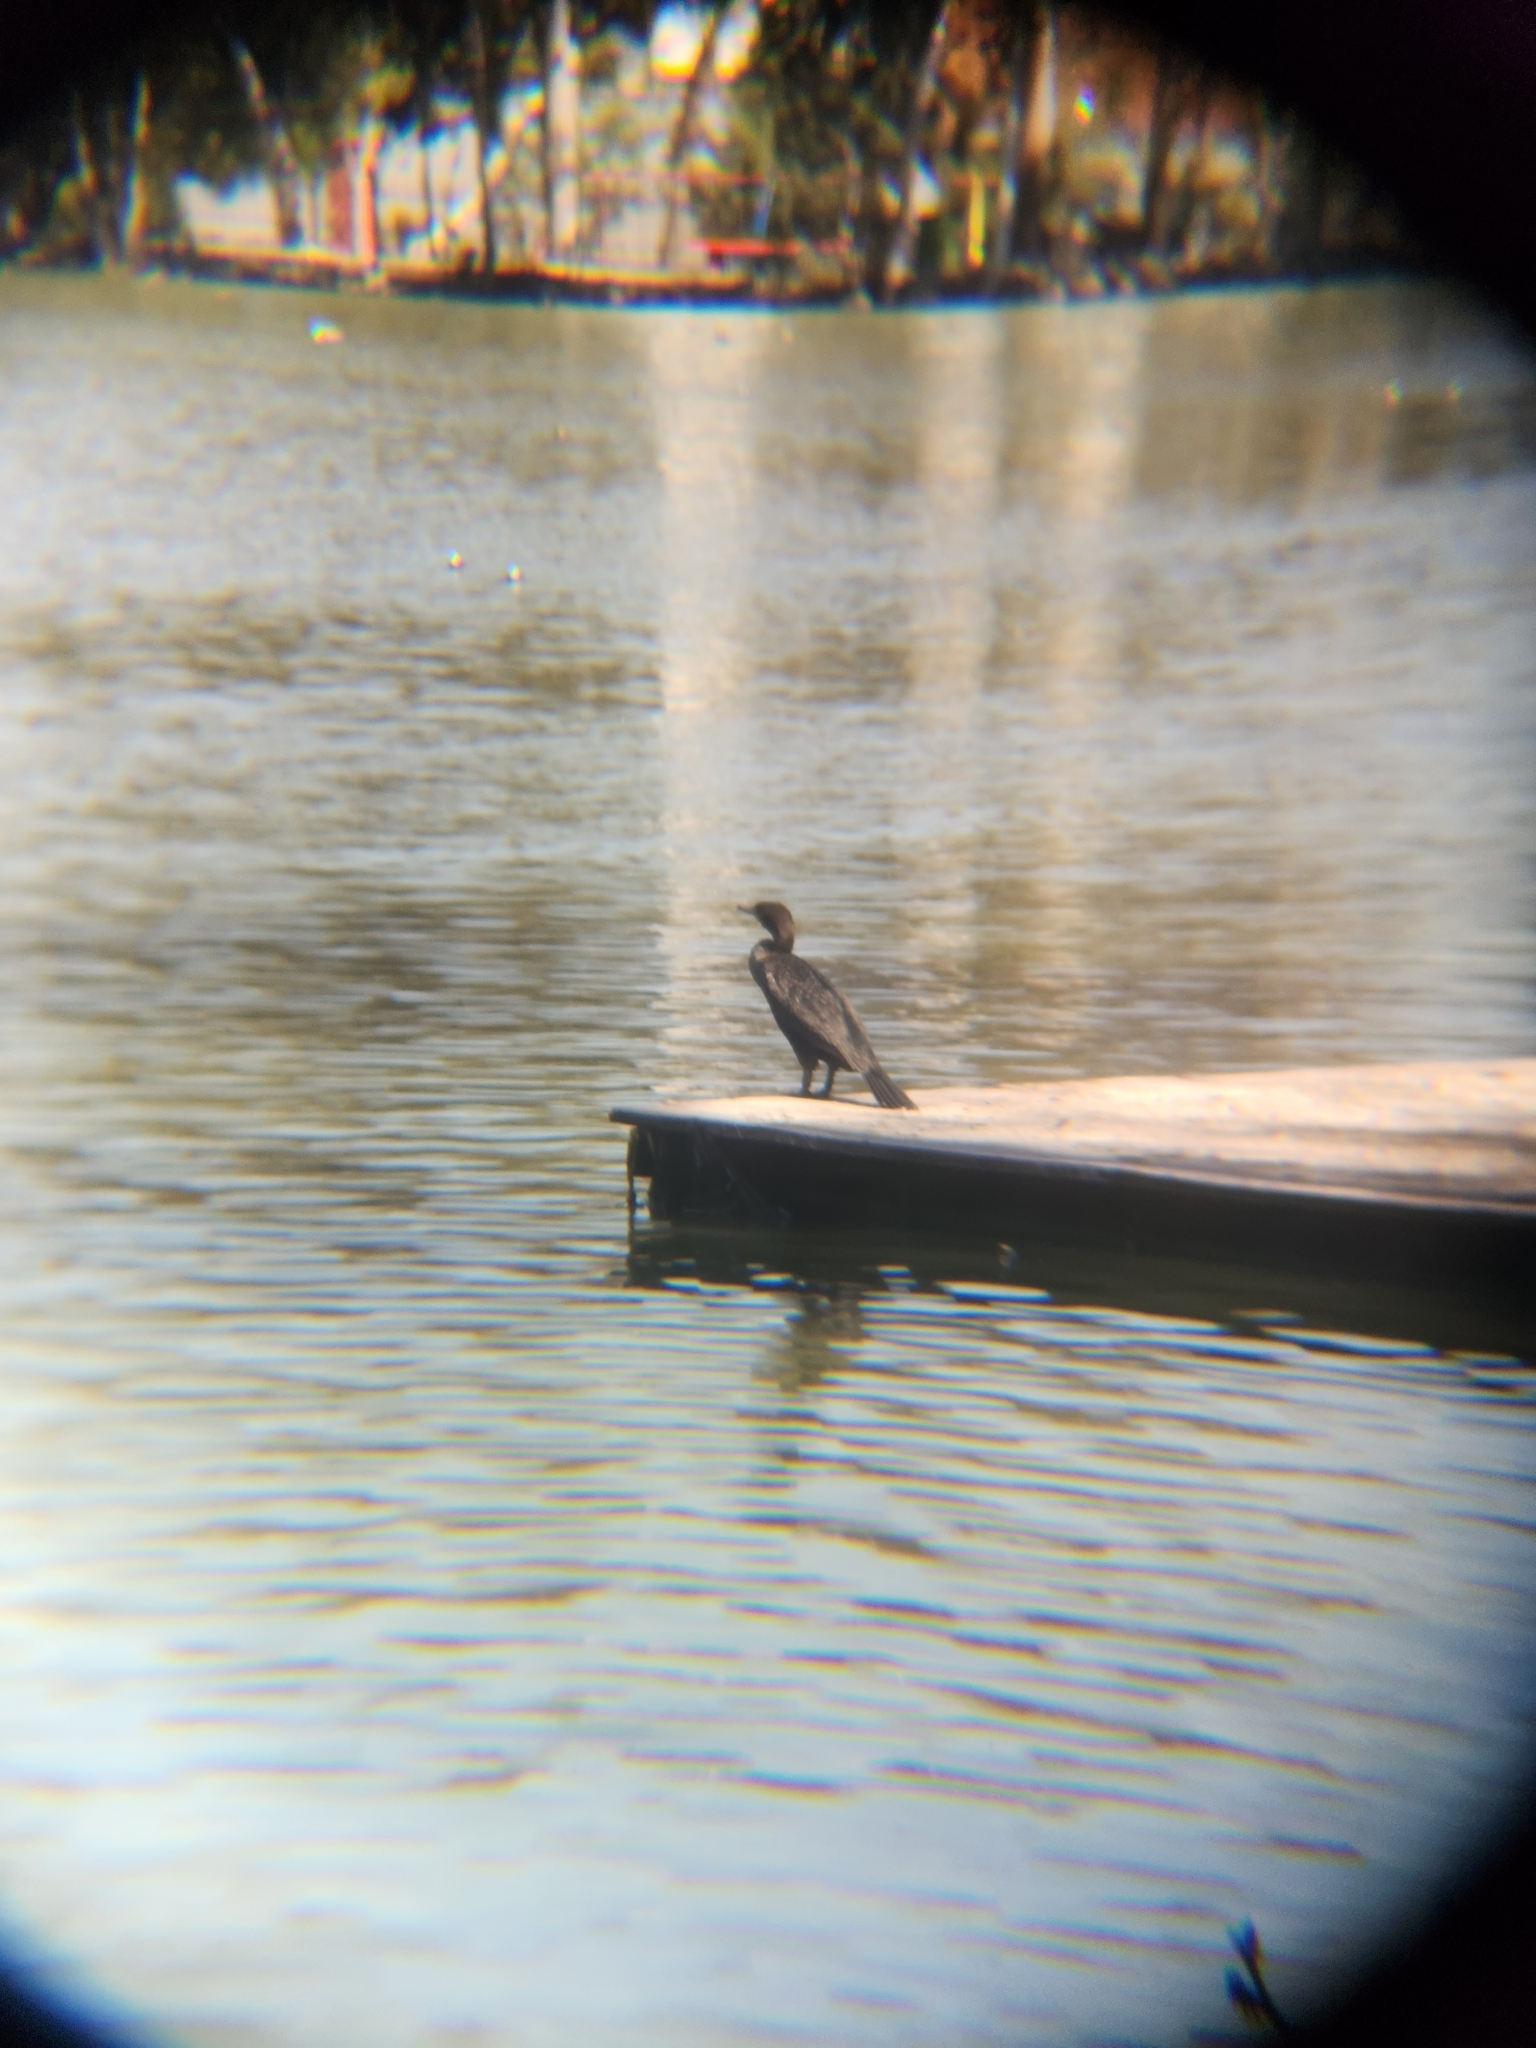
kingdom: Animalia
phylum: Chordata
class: Aves
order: Suliformes
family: Phalacrocoracidae
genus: Phalacrocorax
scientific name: Phalacrocorax auritus
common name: Double-crested cormorant
